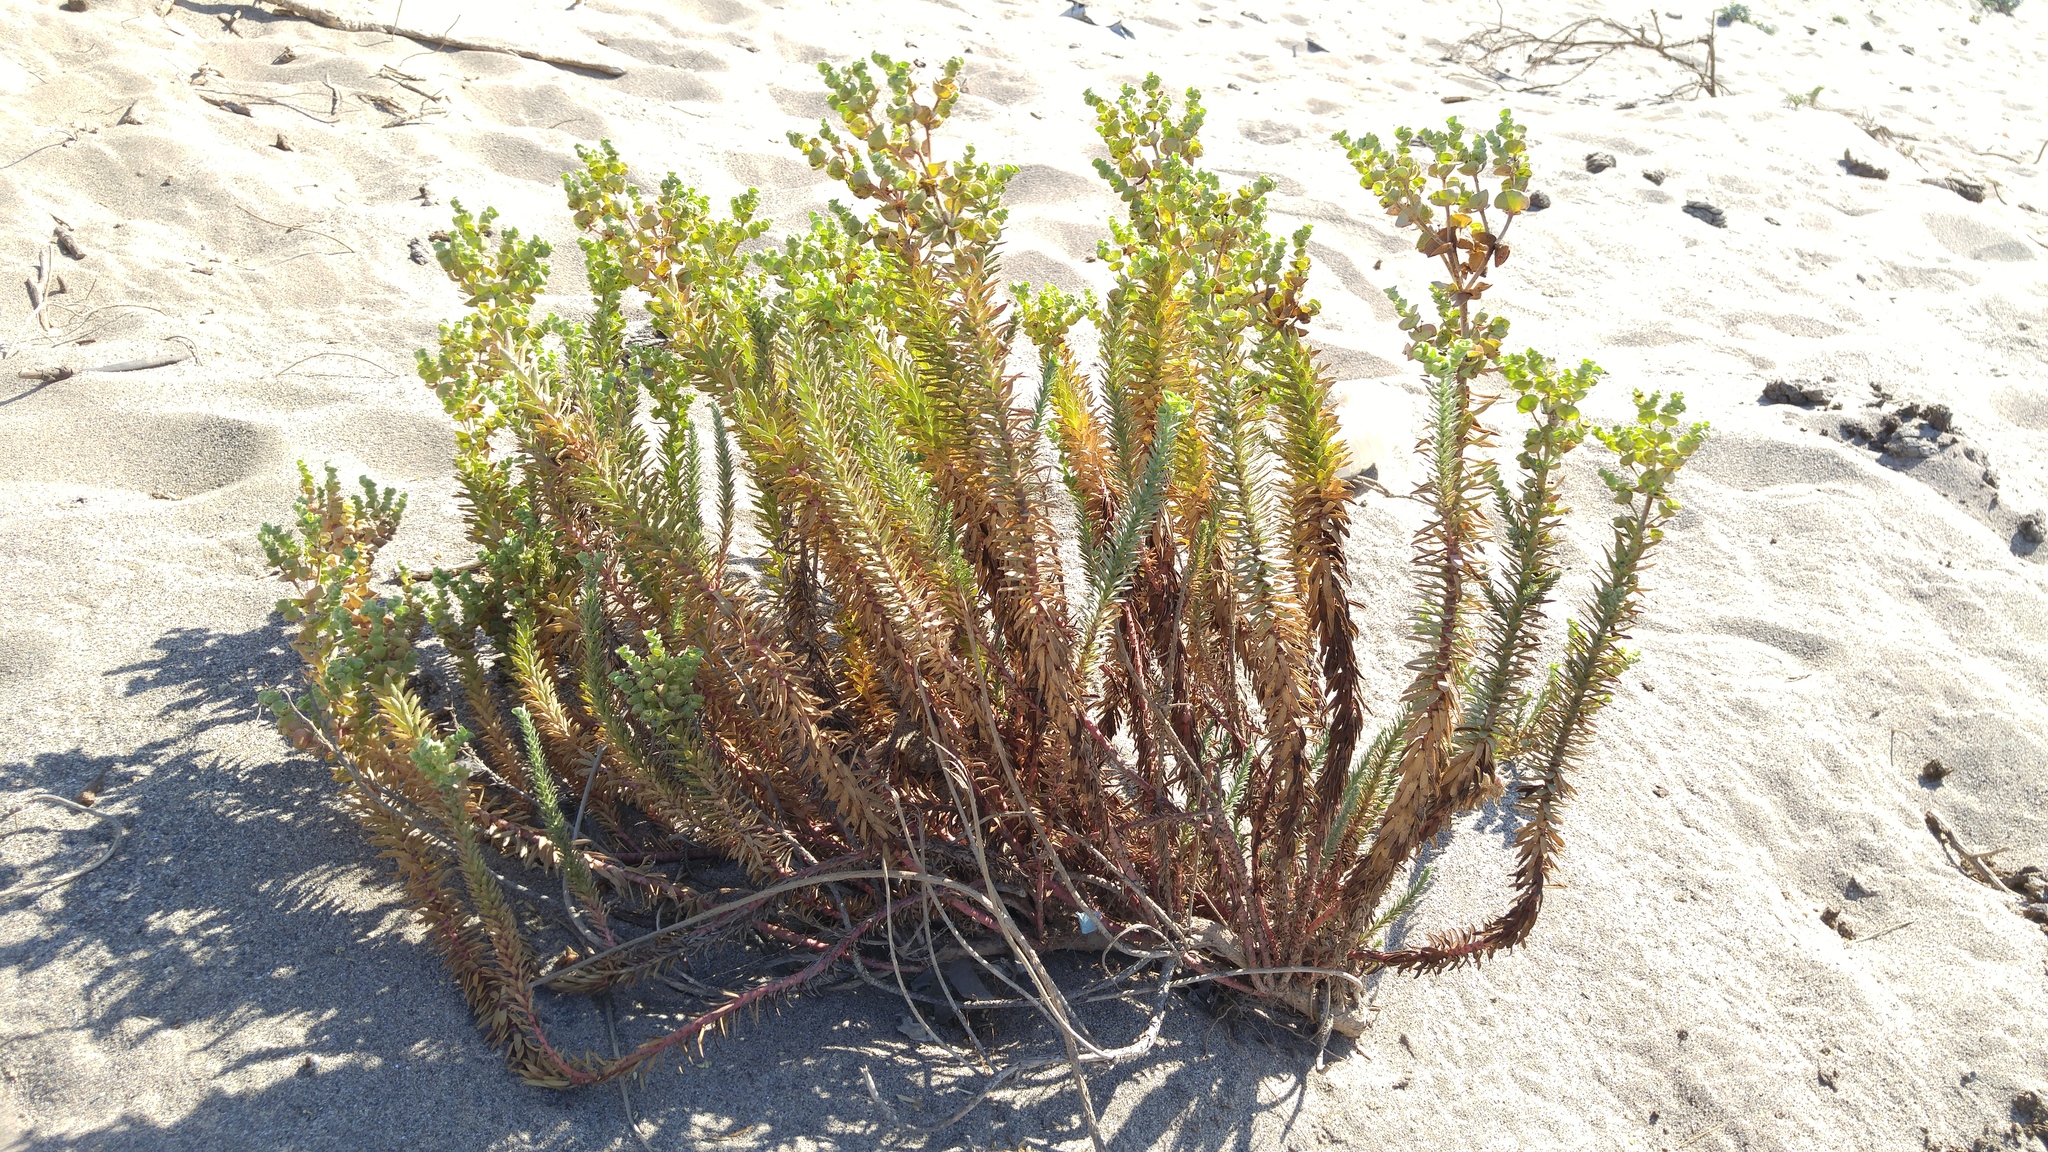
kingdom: Plantae
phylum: Tracheophyta
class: Magnoliopsida
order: Malpighiales
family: Euphorbiaceae
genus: Euphorbia
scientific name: Euphorbia paralias
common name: Sea spurge
